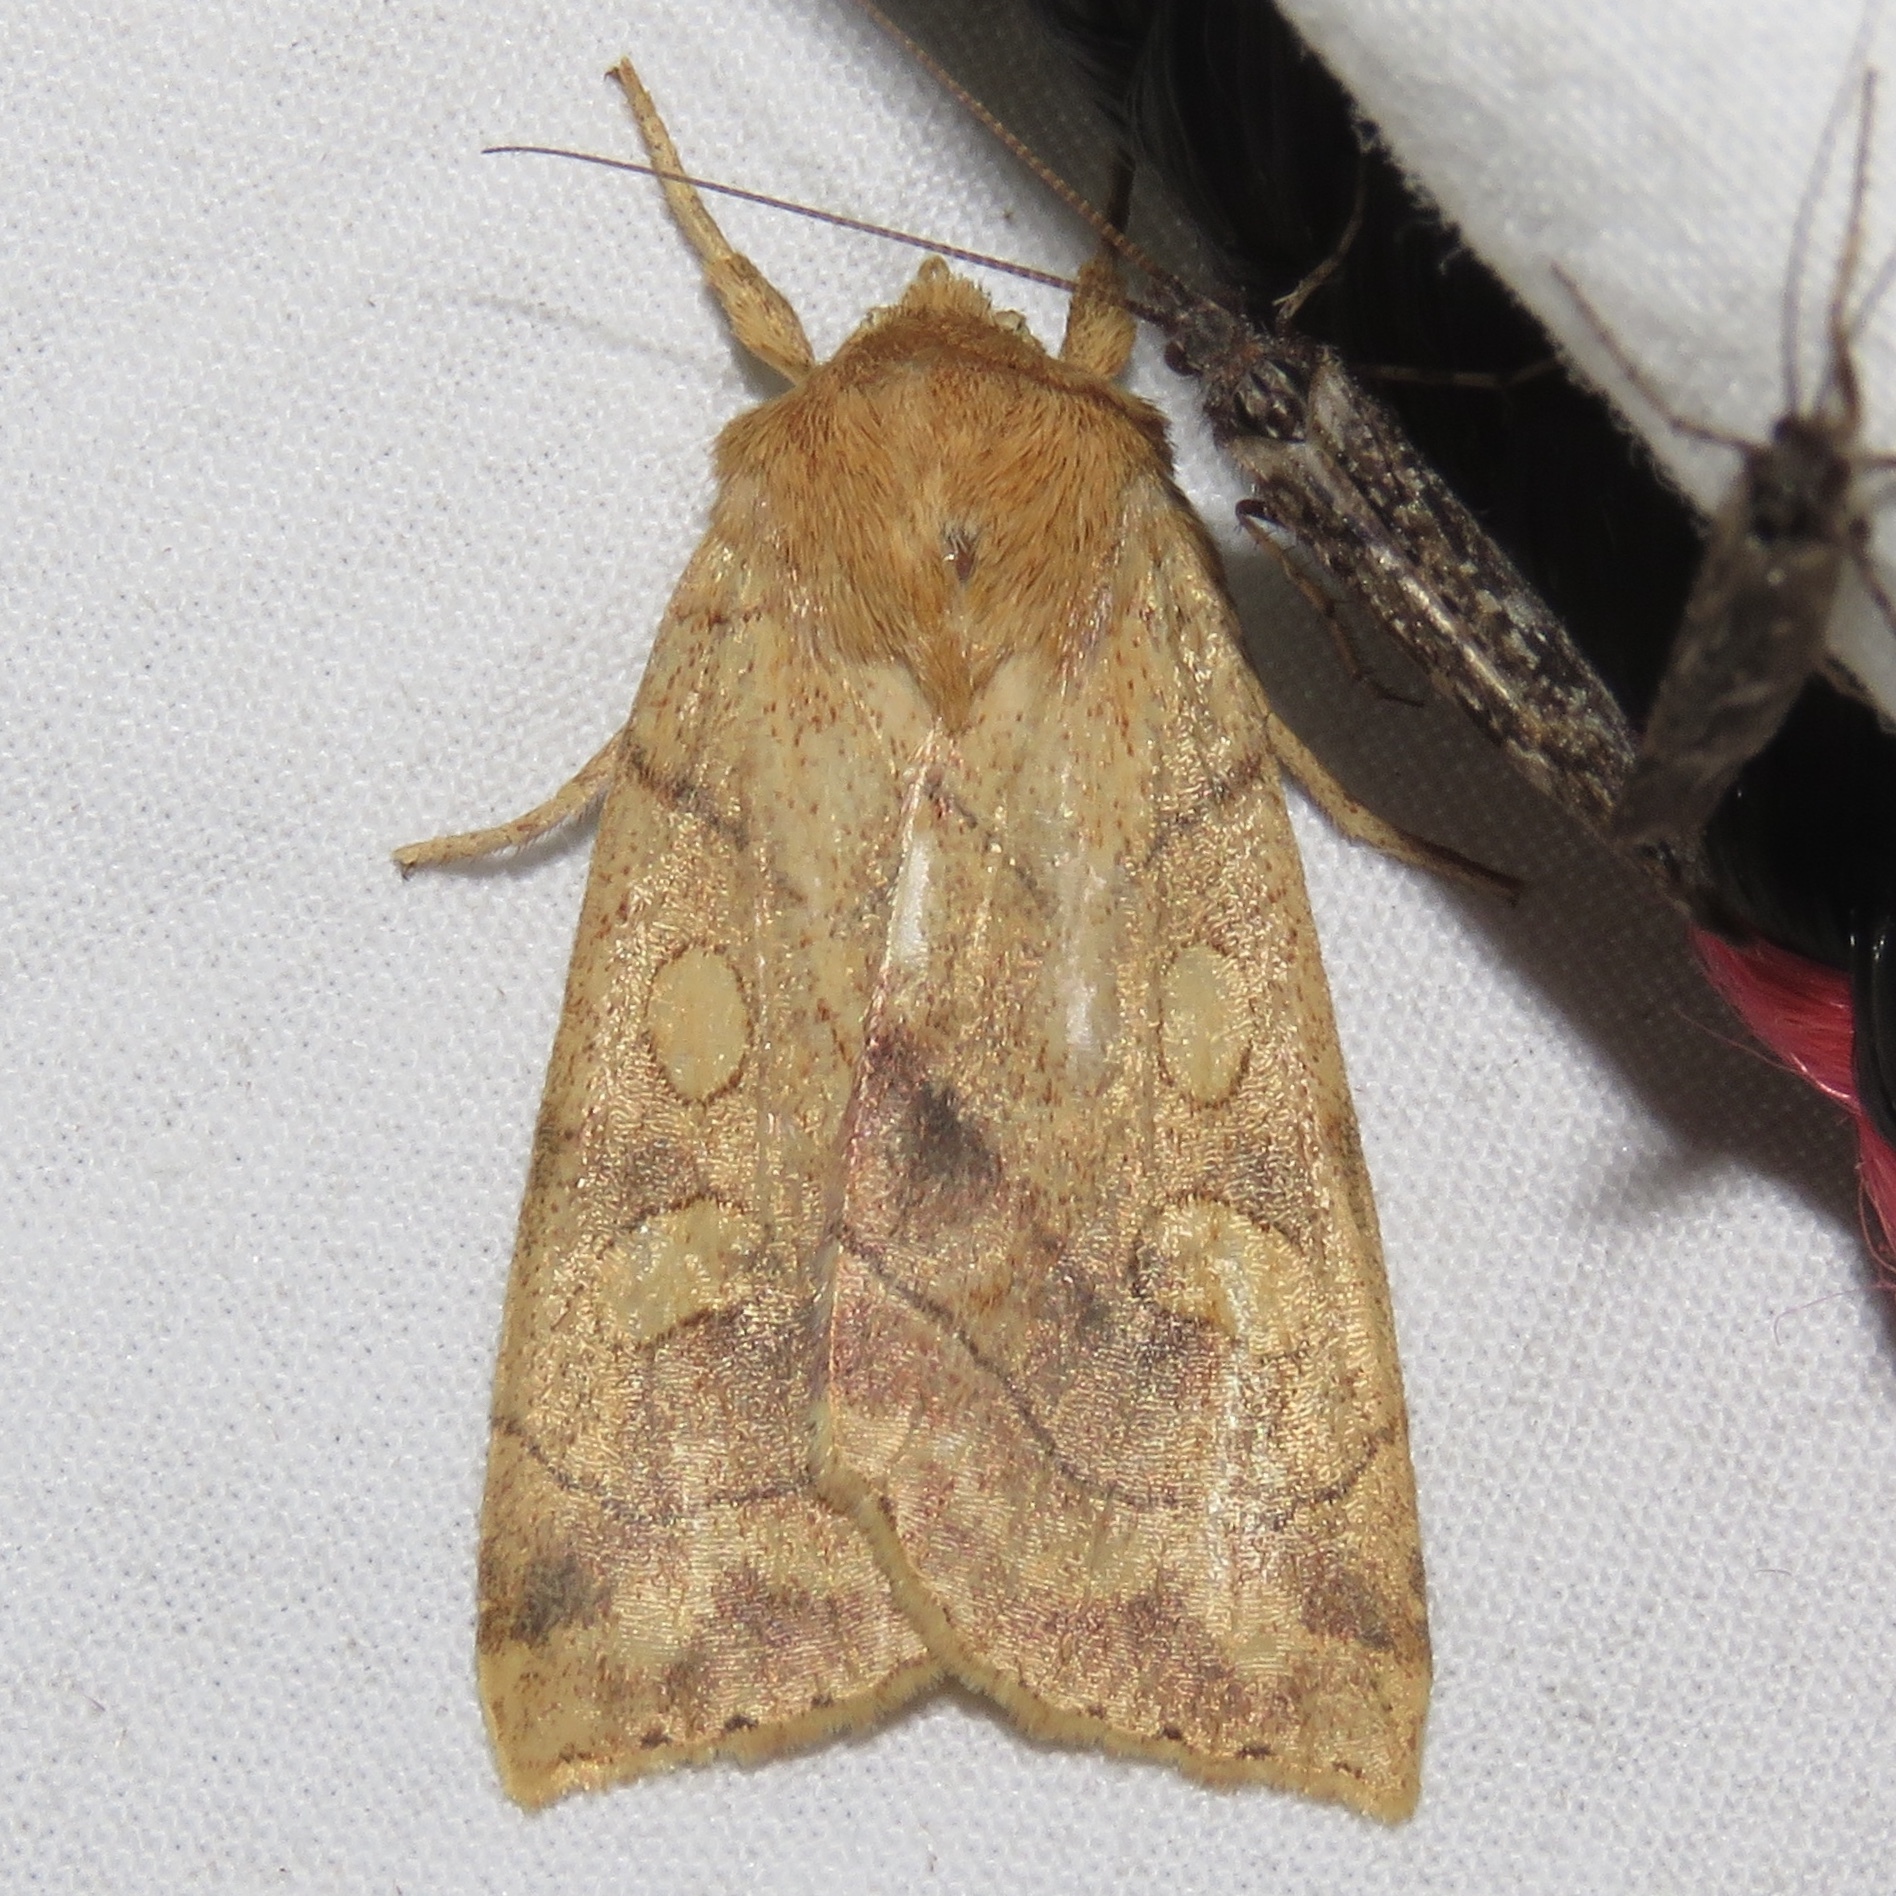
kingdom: Animalia
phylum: Arthropoda
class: Insecta
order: Lepidoptera
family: Noctuidae
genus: Enargia
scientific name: Enargia decolor
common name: Aspen twoleaf tier moth
